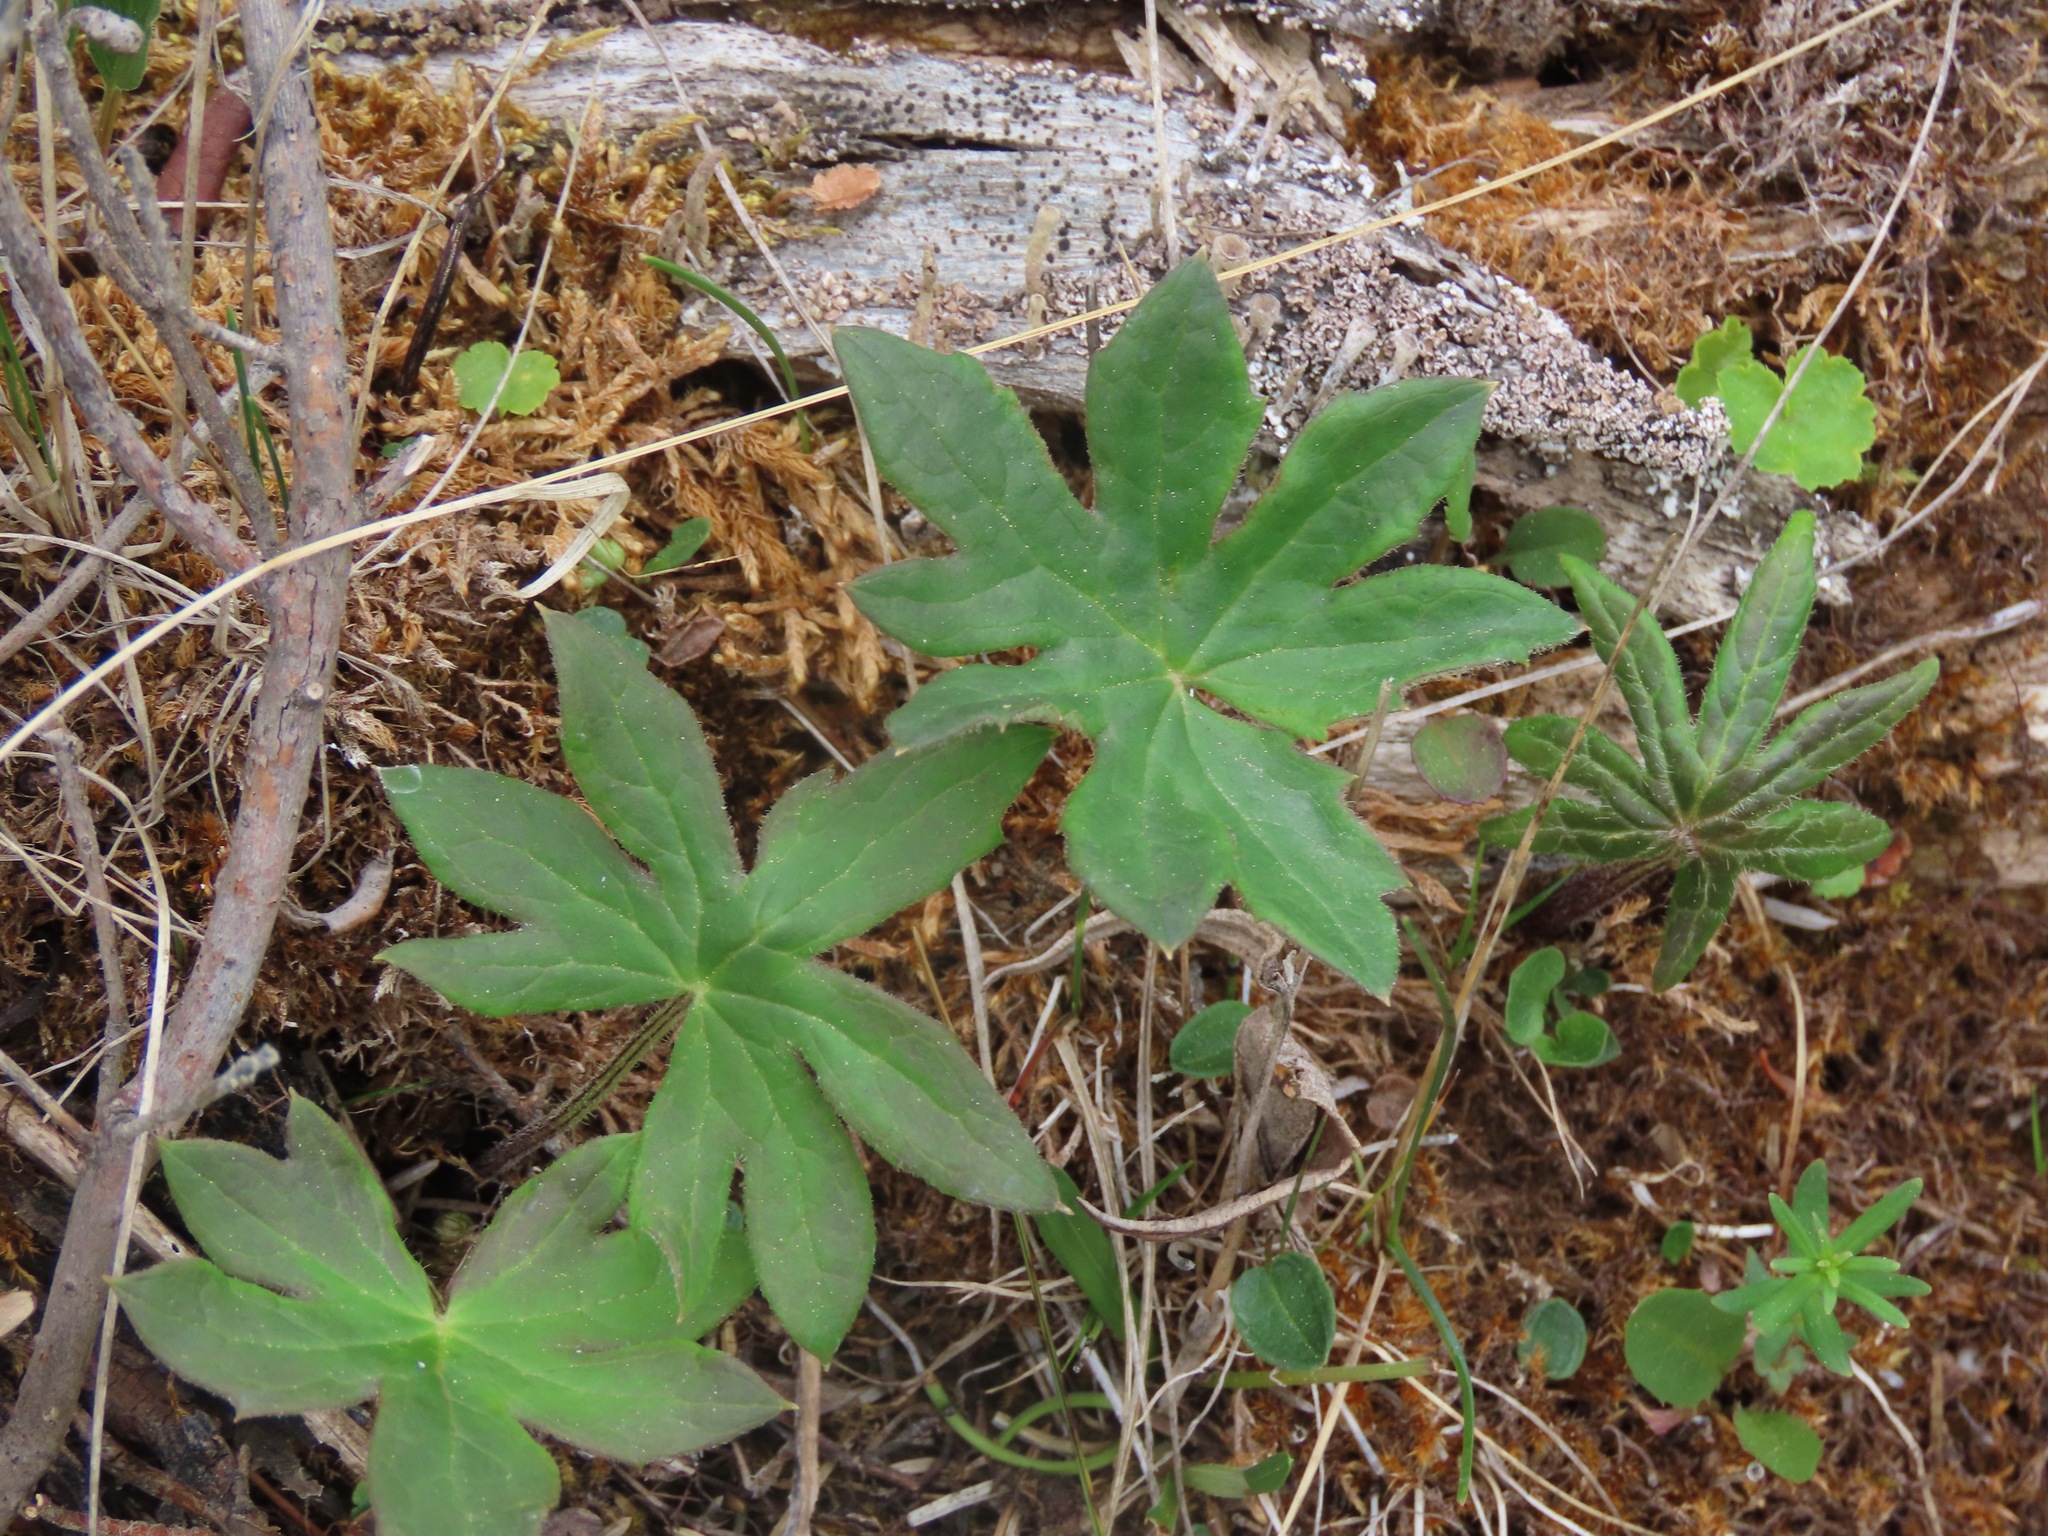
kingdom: Plantae
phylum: Tracheophyta
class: Magnoliopsida
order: Asterales
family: Asteraceae
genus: Petasites
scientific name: Petasites frigidus
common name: Arctic butterbur
